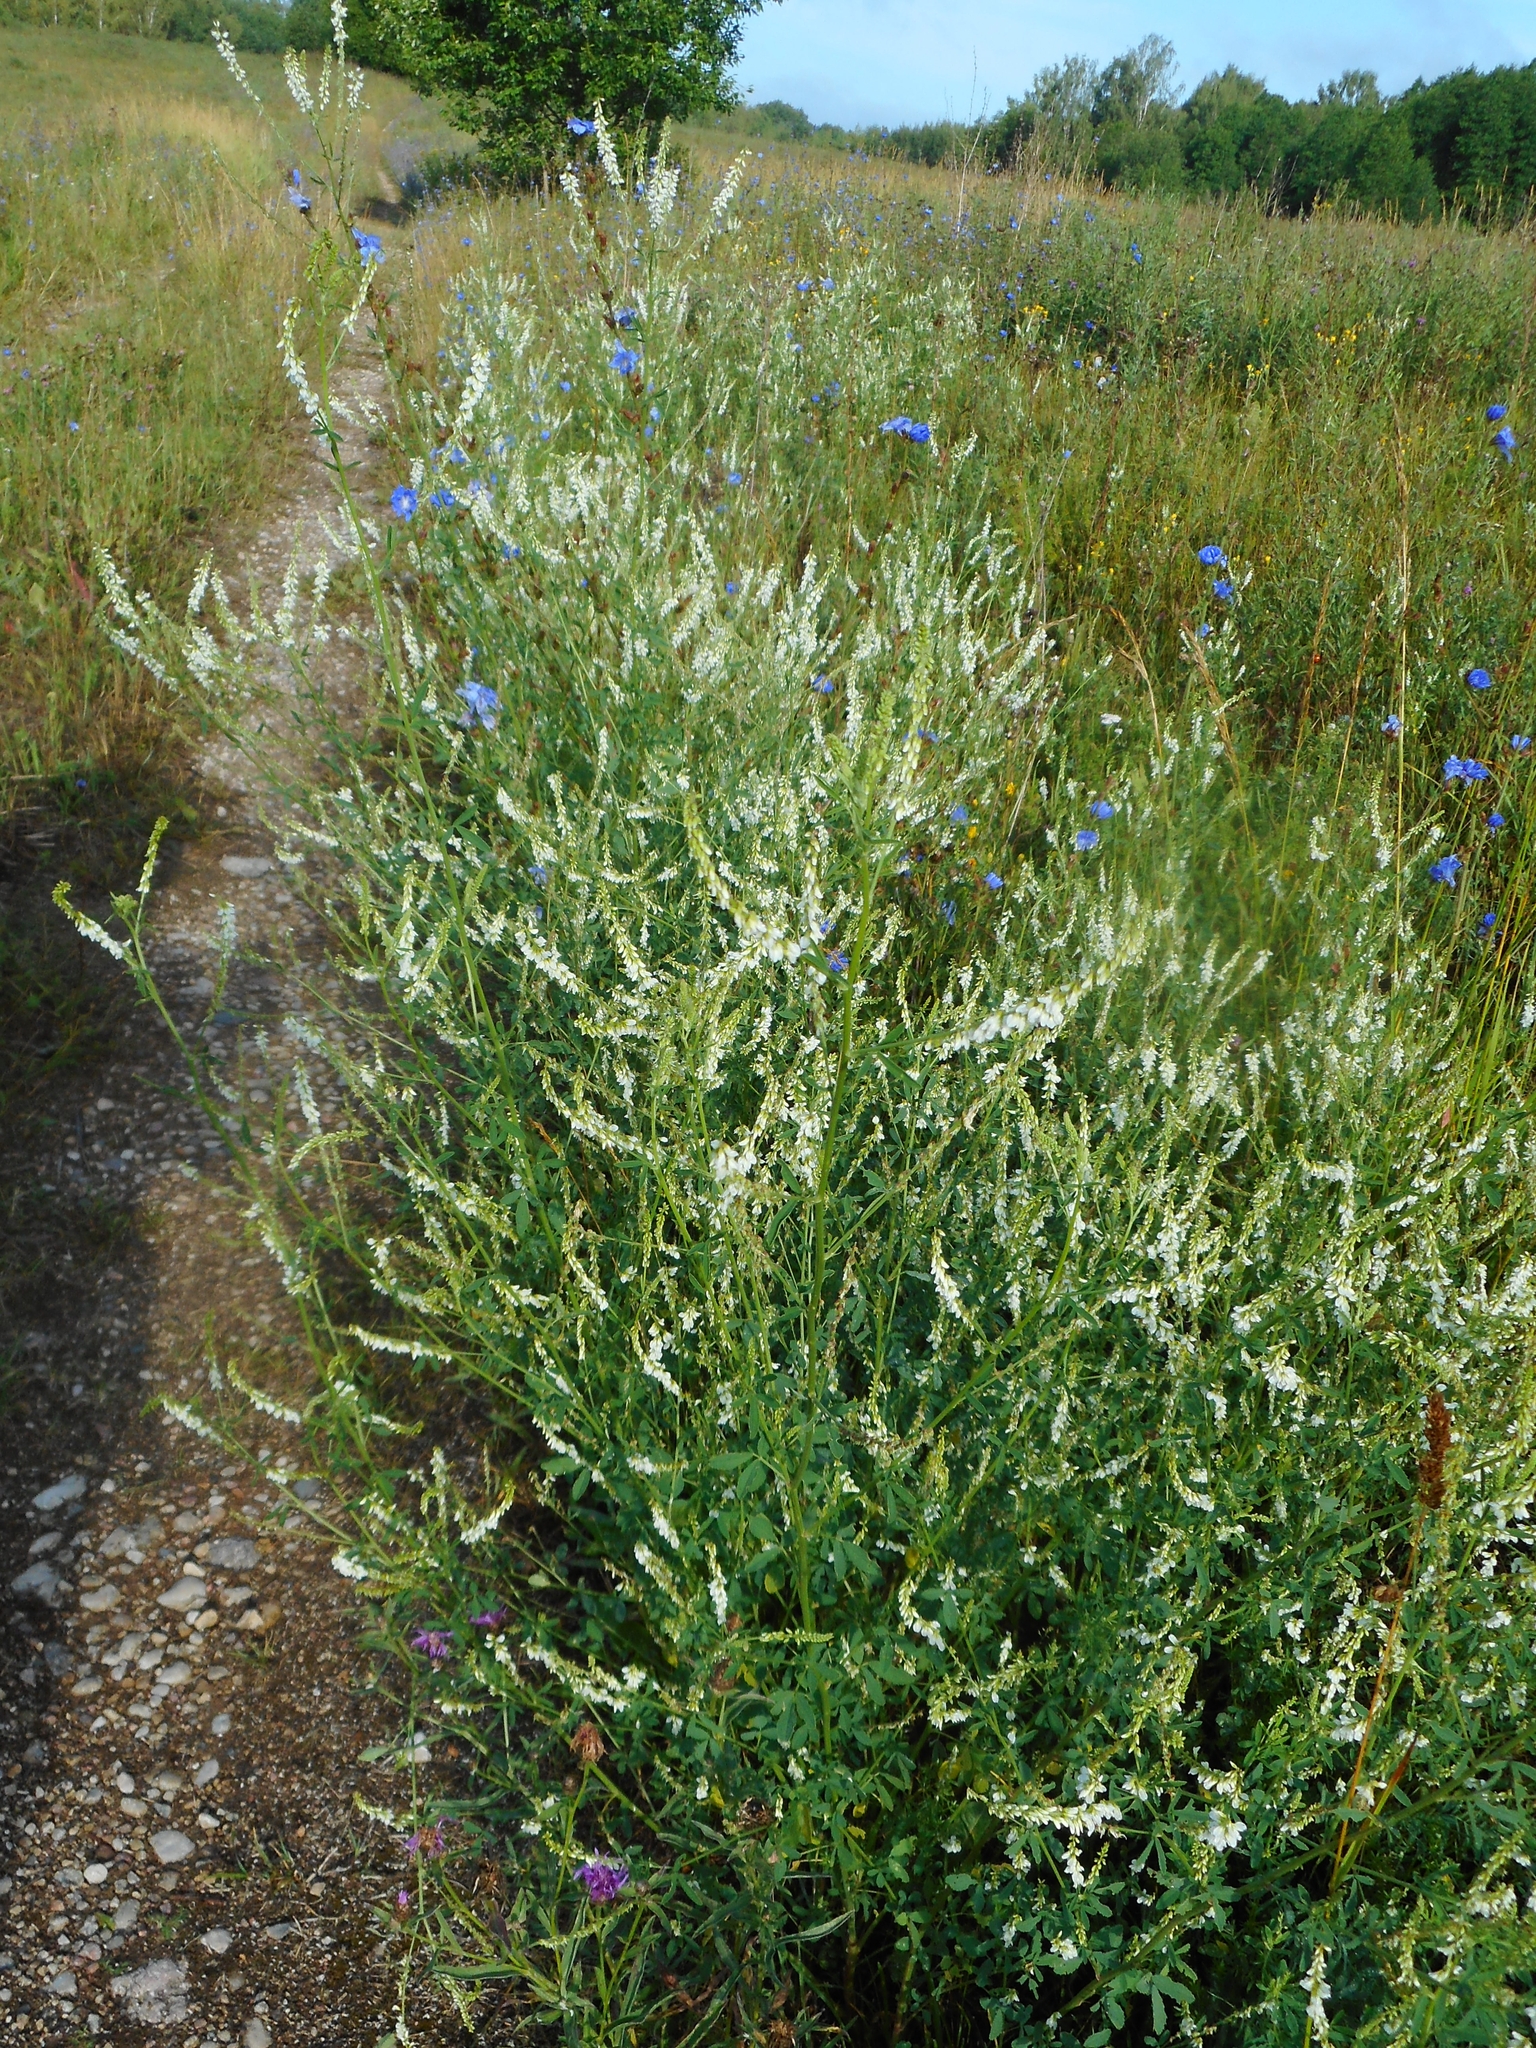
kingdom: Plantae
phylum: Tracheophyta
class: Magnoliopsida
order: Fabales
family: Fabaceae
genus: Melilotus
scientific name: Melilotus albus
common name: White melilot
